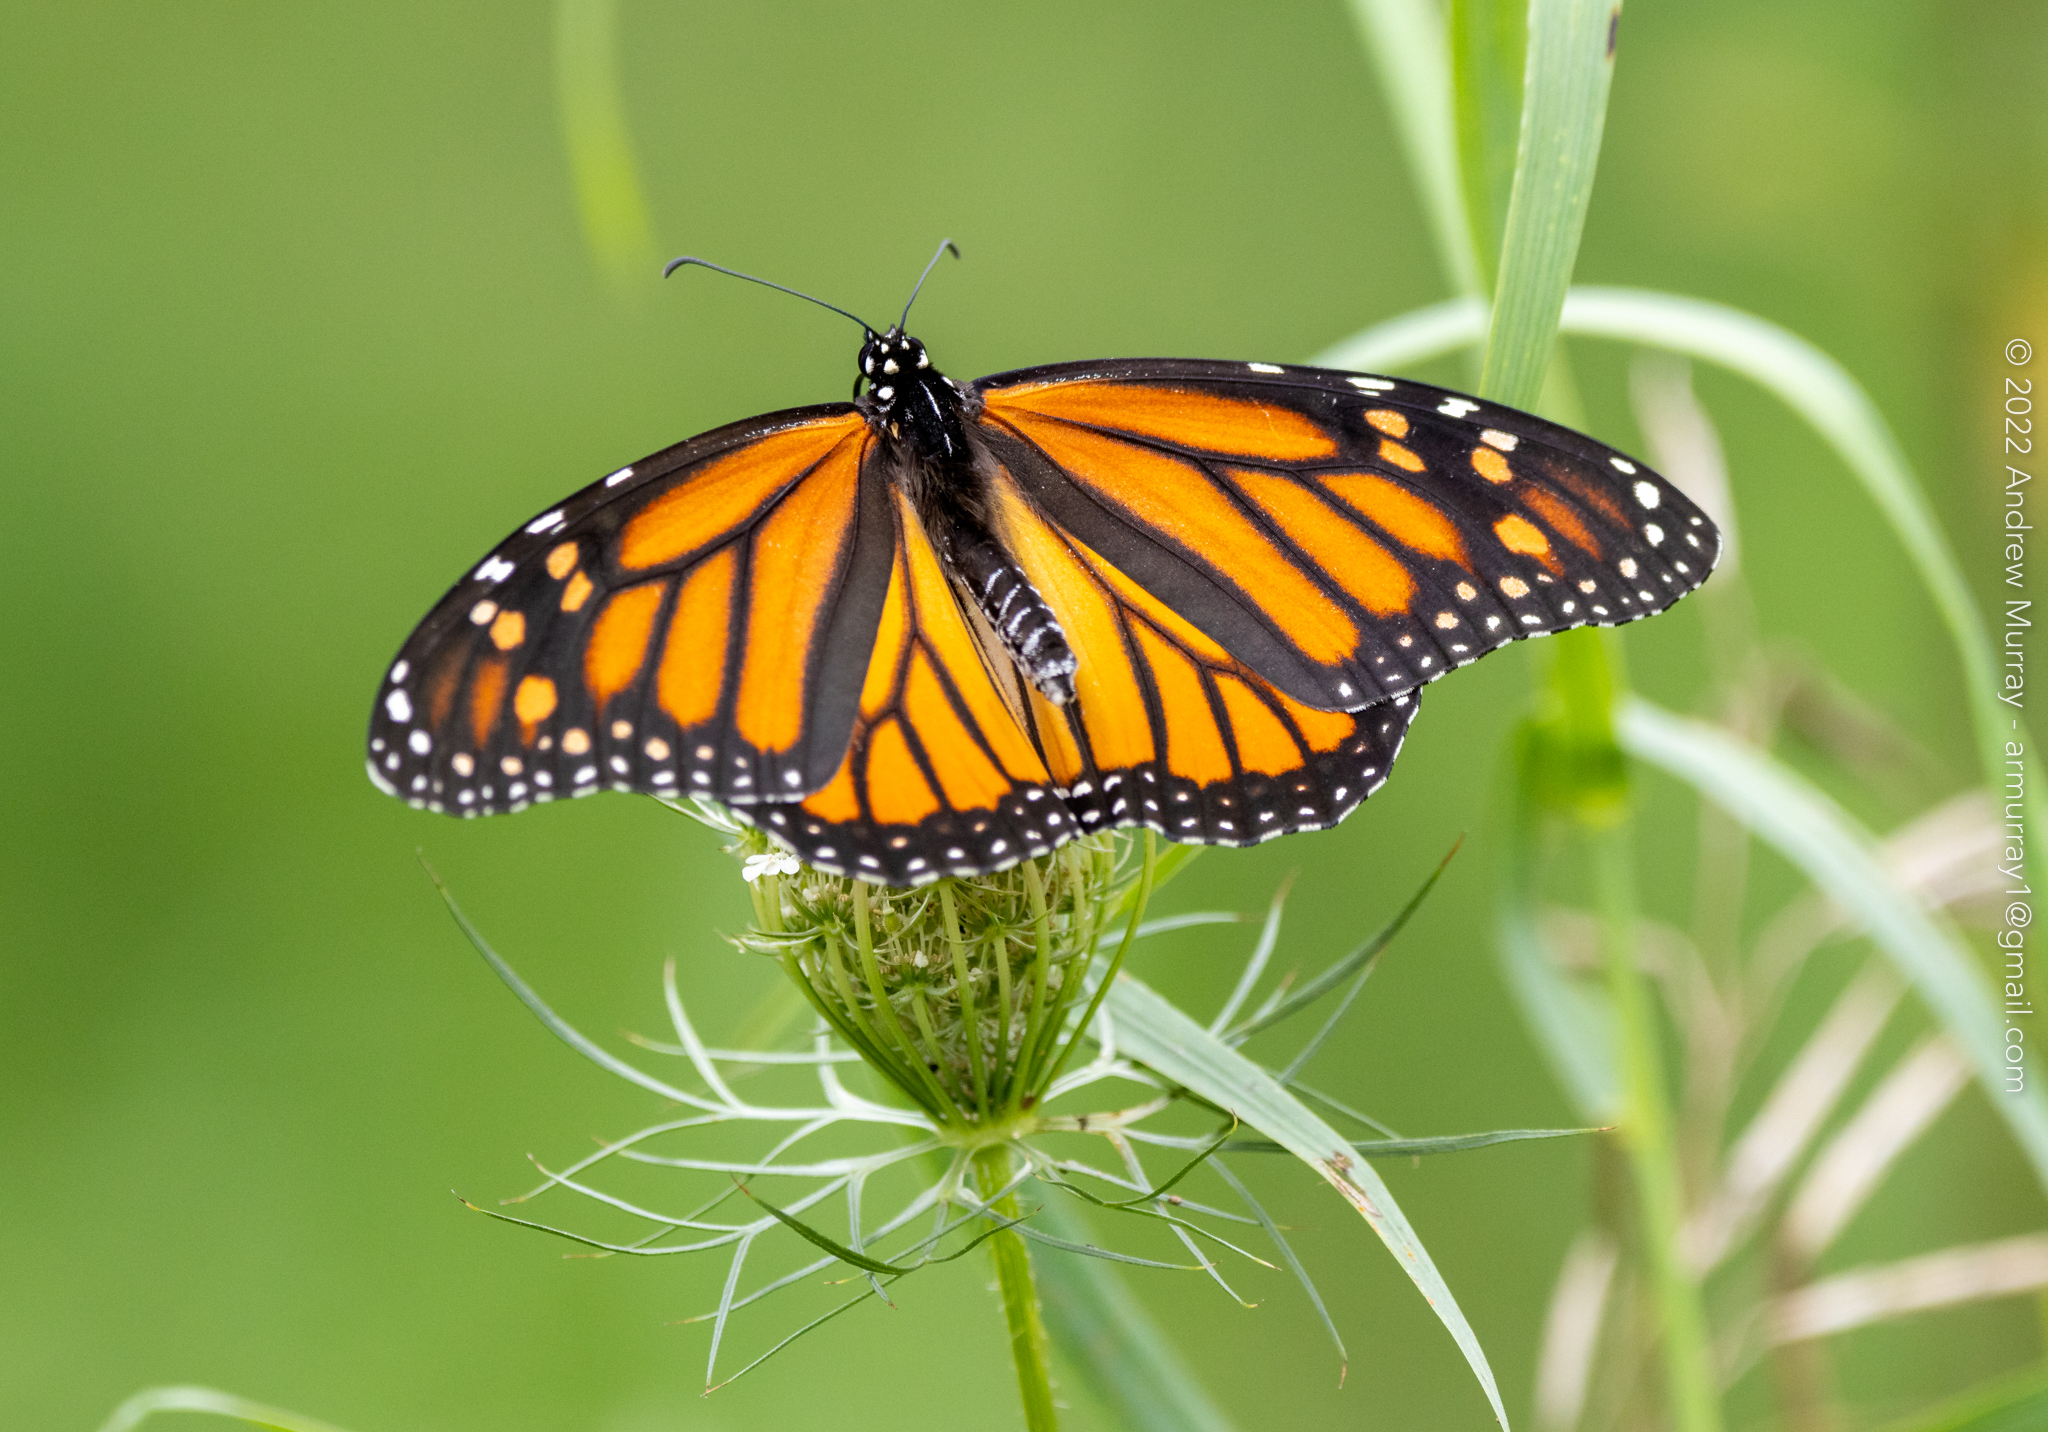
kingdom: Animalia
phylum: Arthropoda
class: Insecta
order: Lepidoptera
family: Nymphalidae
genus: Danaus
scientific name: Danaus plexippus
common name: Monarch
